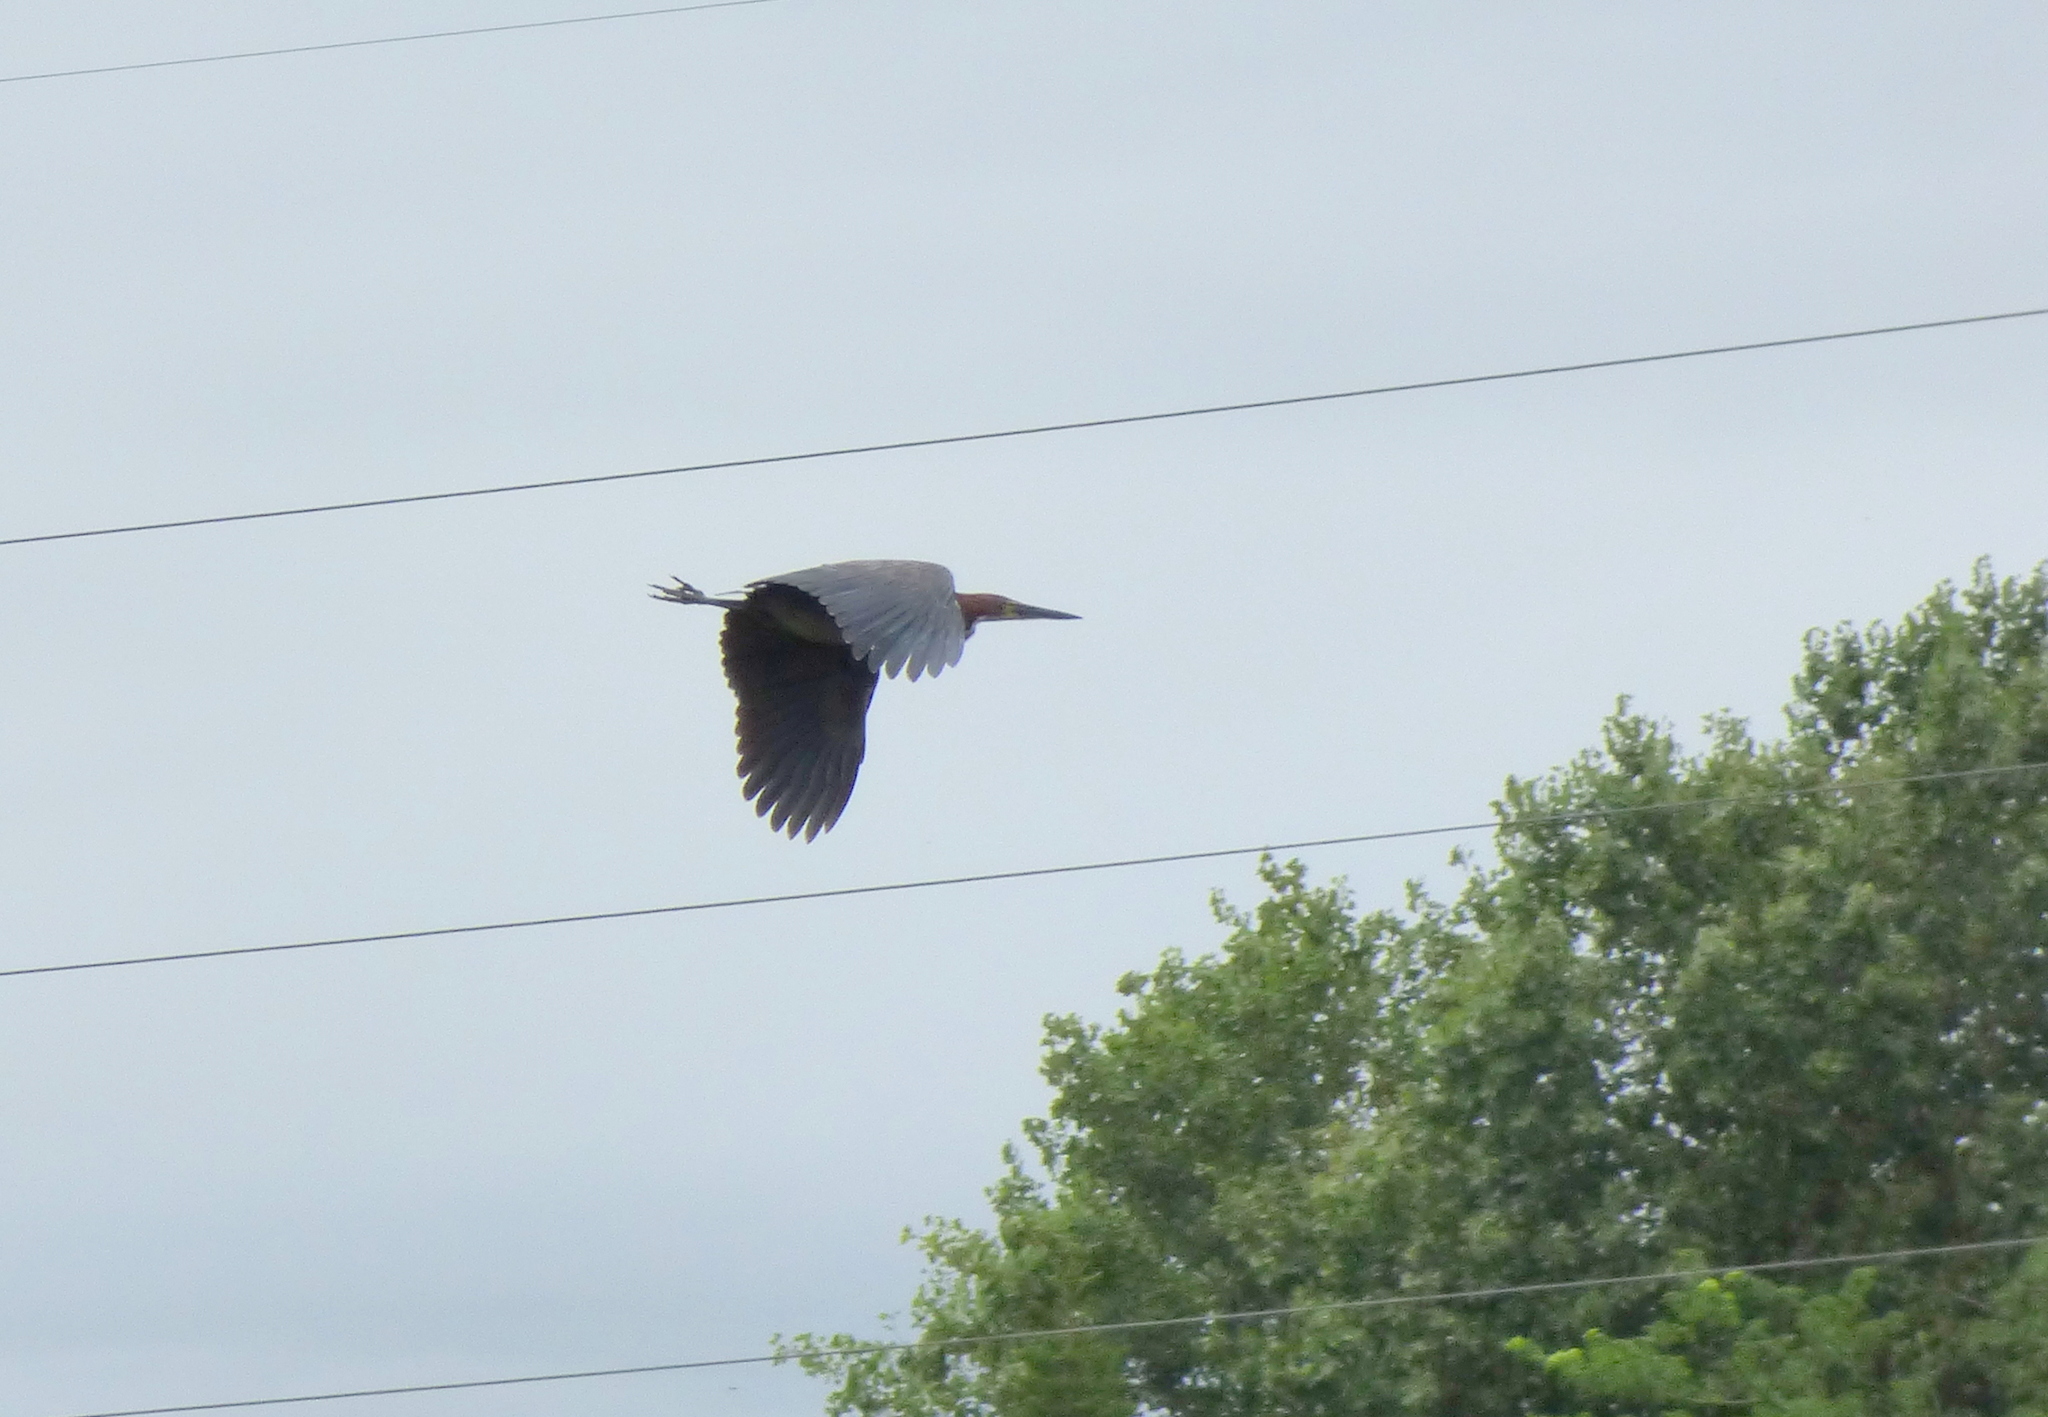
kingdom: Animalia
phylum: Chordata
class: Aves
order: Pelecaniformes
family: Ardeidae
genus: Tigrisoma
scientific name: Tigrisoma lineatum
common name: Rufescent tiger-heron
